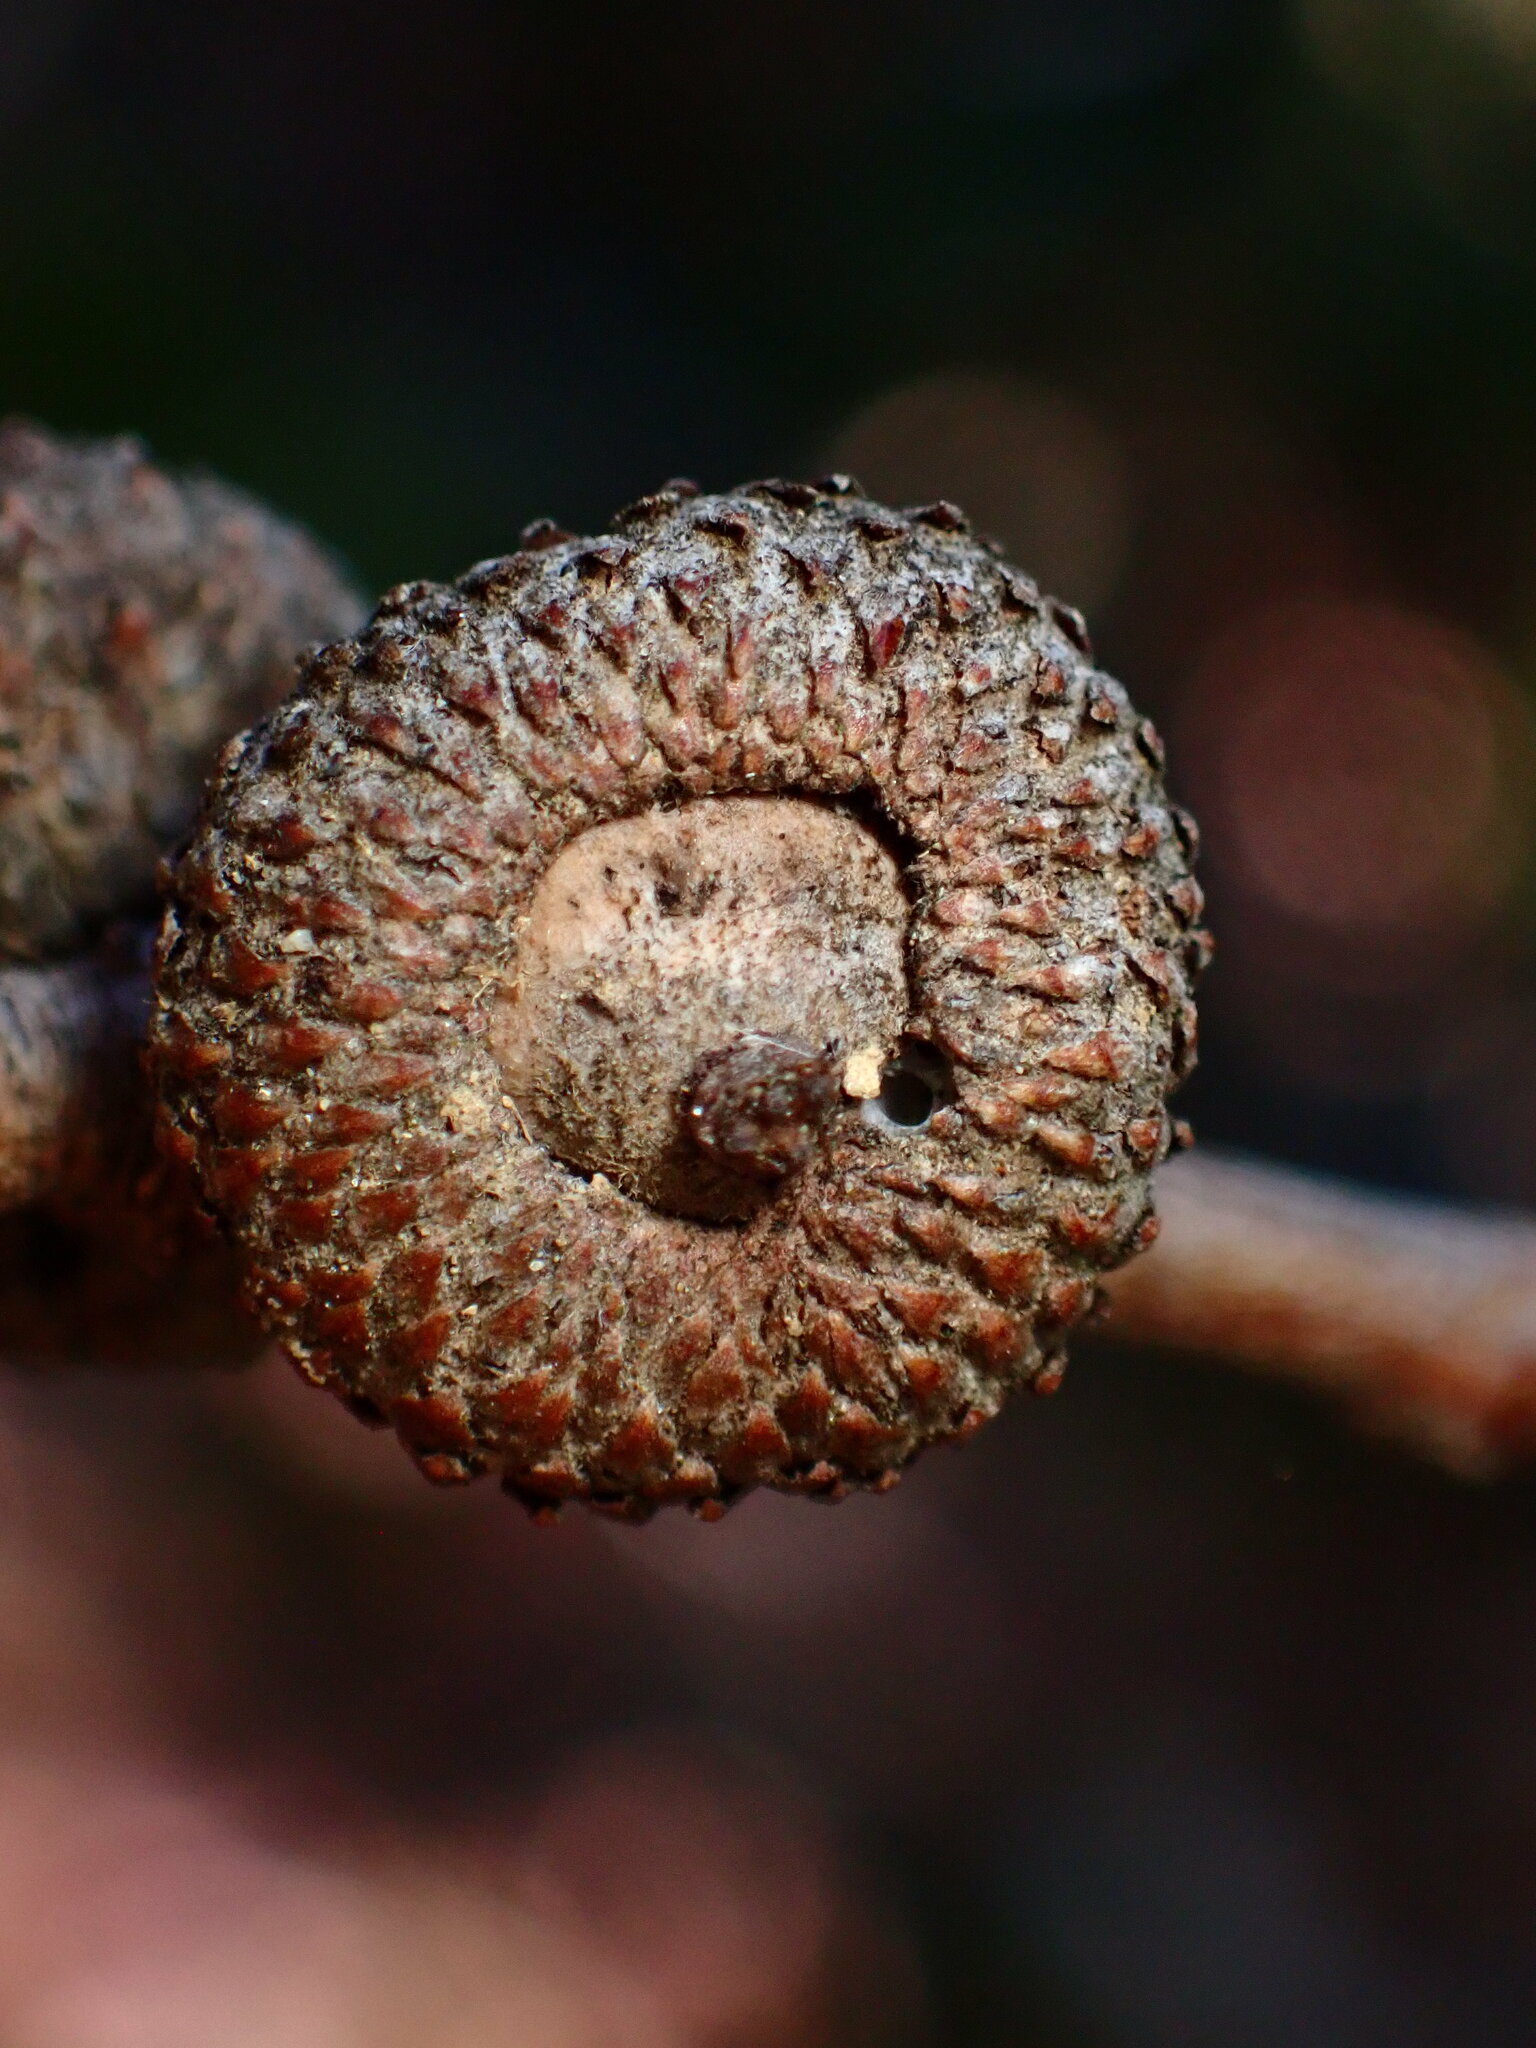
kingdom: Animalia
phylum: Arthropoda
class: Insecta
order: Hymenoptera
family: Cynipidae
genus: Andricus
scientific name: Andricus
